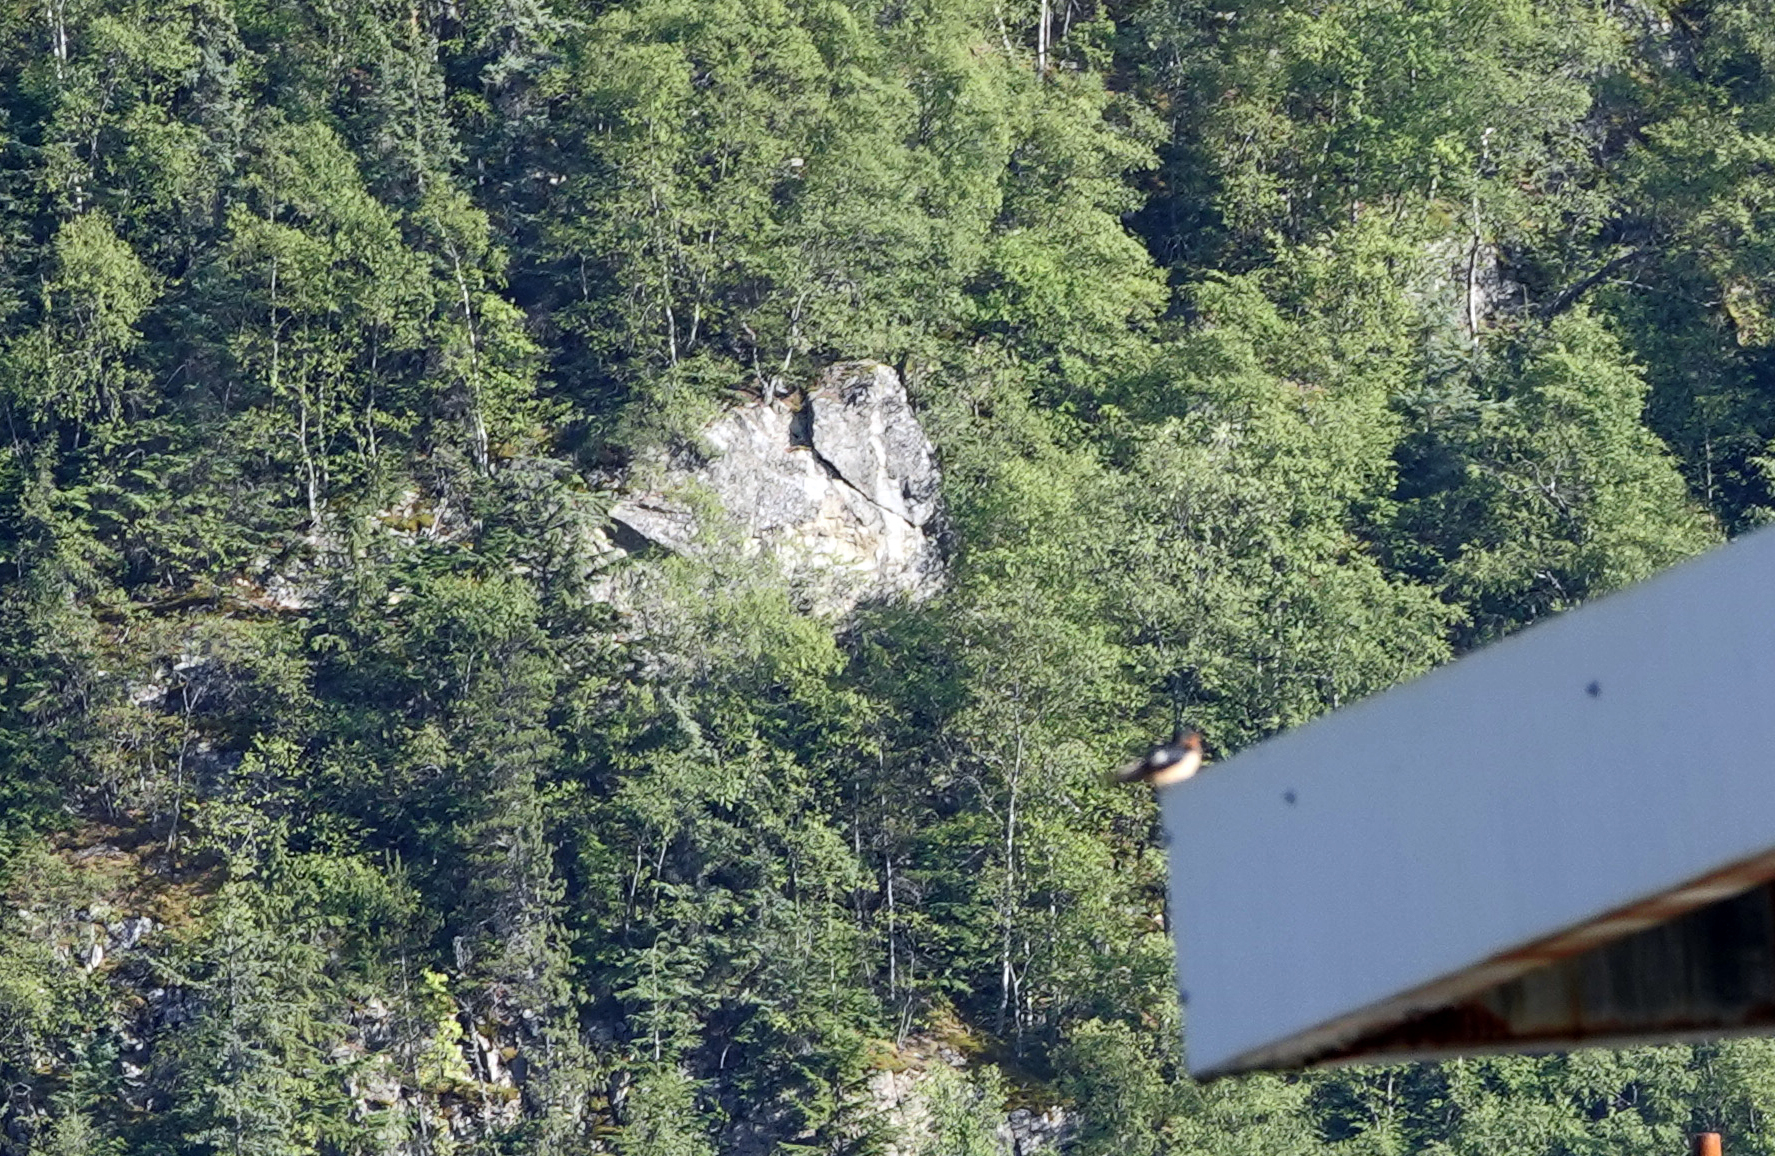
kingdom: Animalia
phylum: Chordata
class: Aves
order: Passeriformes
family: Hirundinidae
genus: Hirundo
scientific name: Hirundo rustica
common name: Barn swallow
